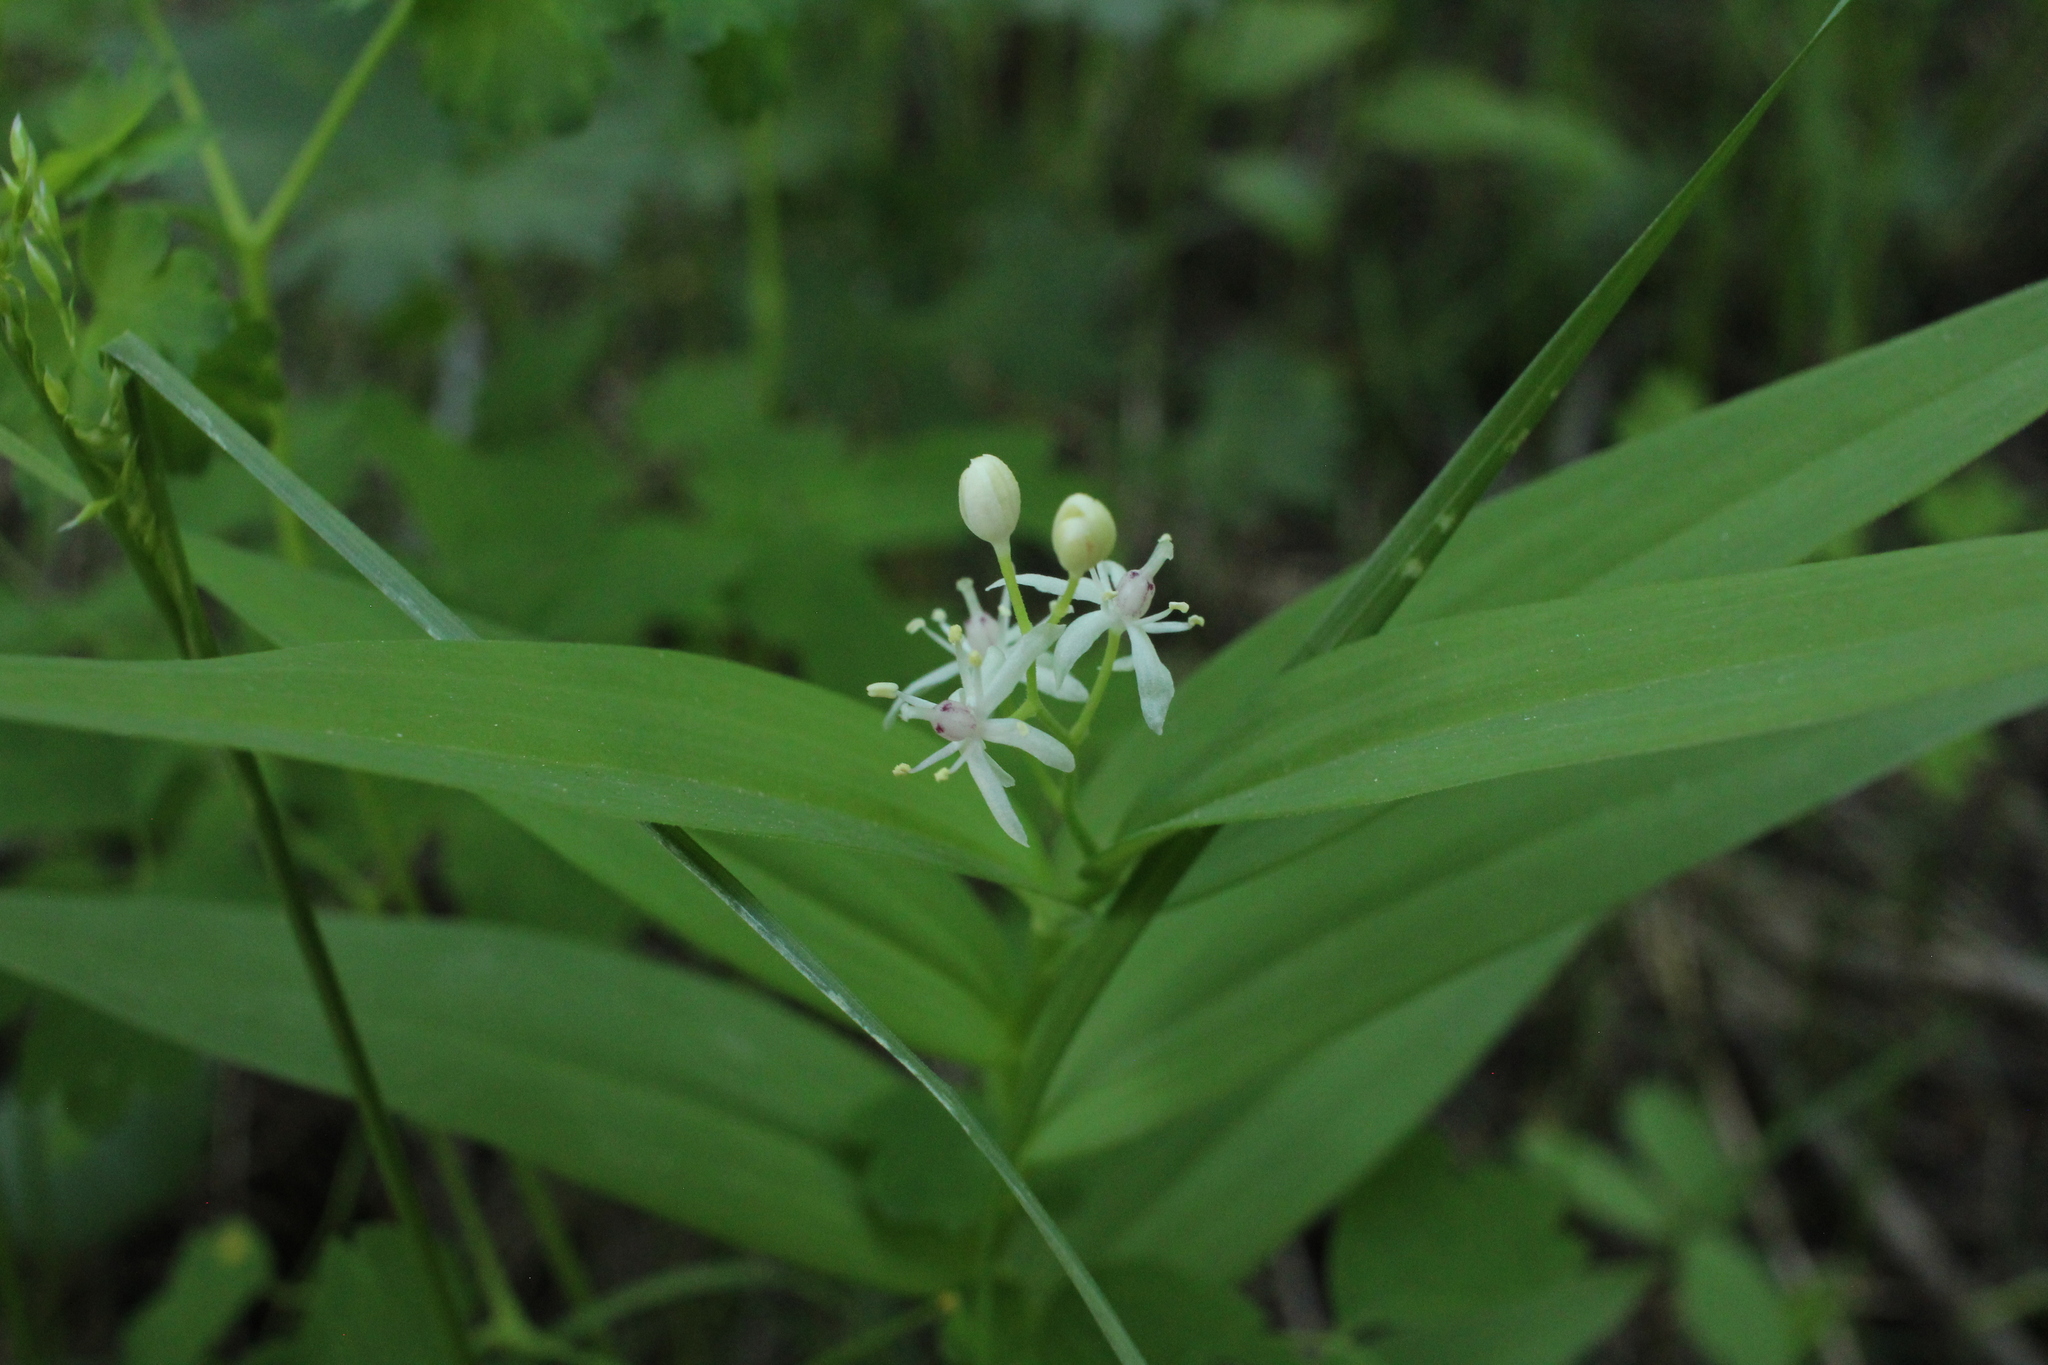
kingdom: Plantae
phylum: Tracheophyta
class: Liliopsida
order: Asparagales
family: Asparagaceae
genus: Maianthemum
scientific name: Maianthemum stellatum
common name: Little false solomon's seal
